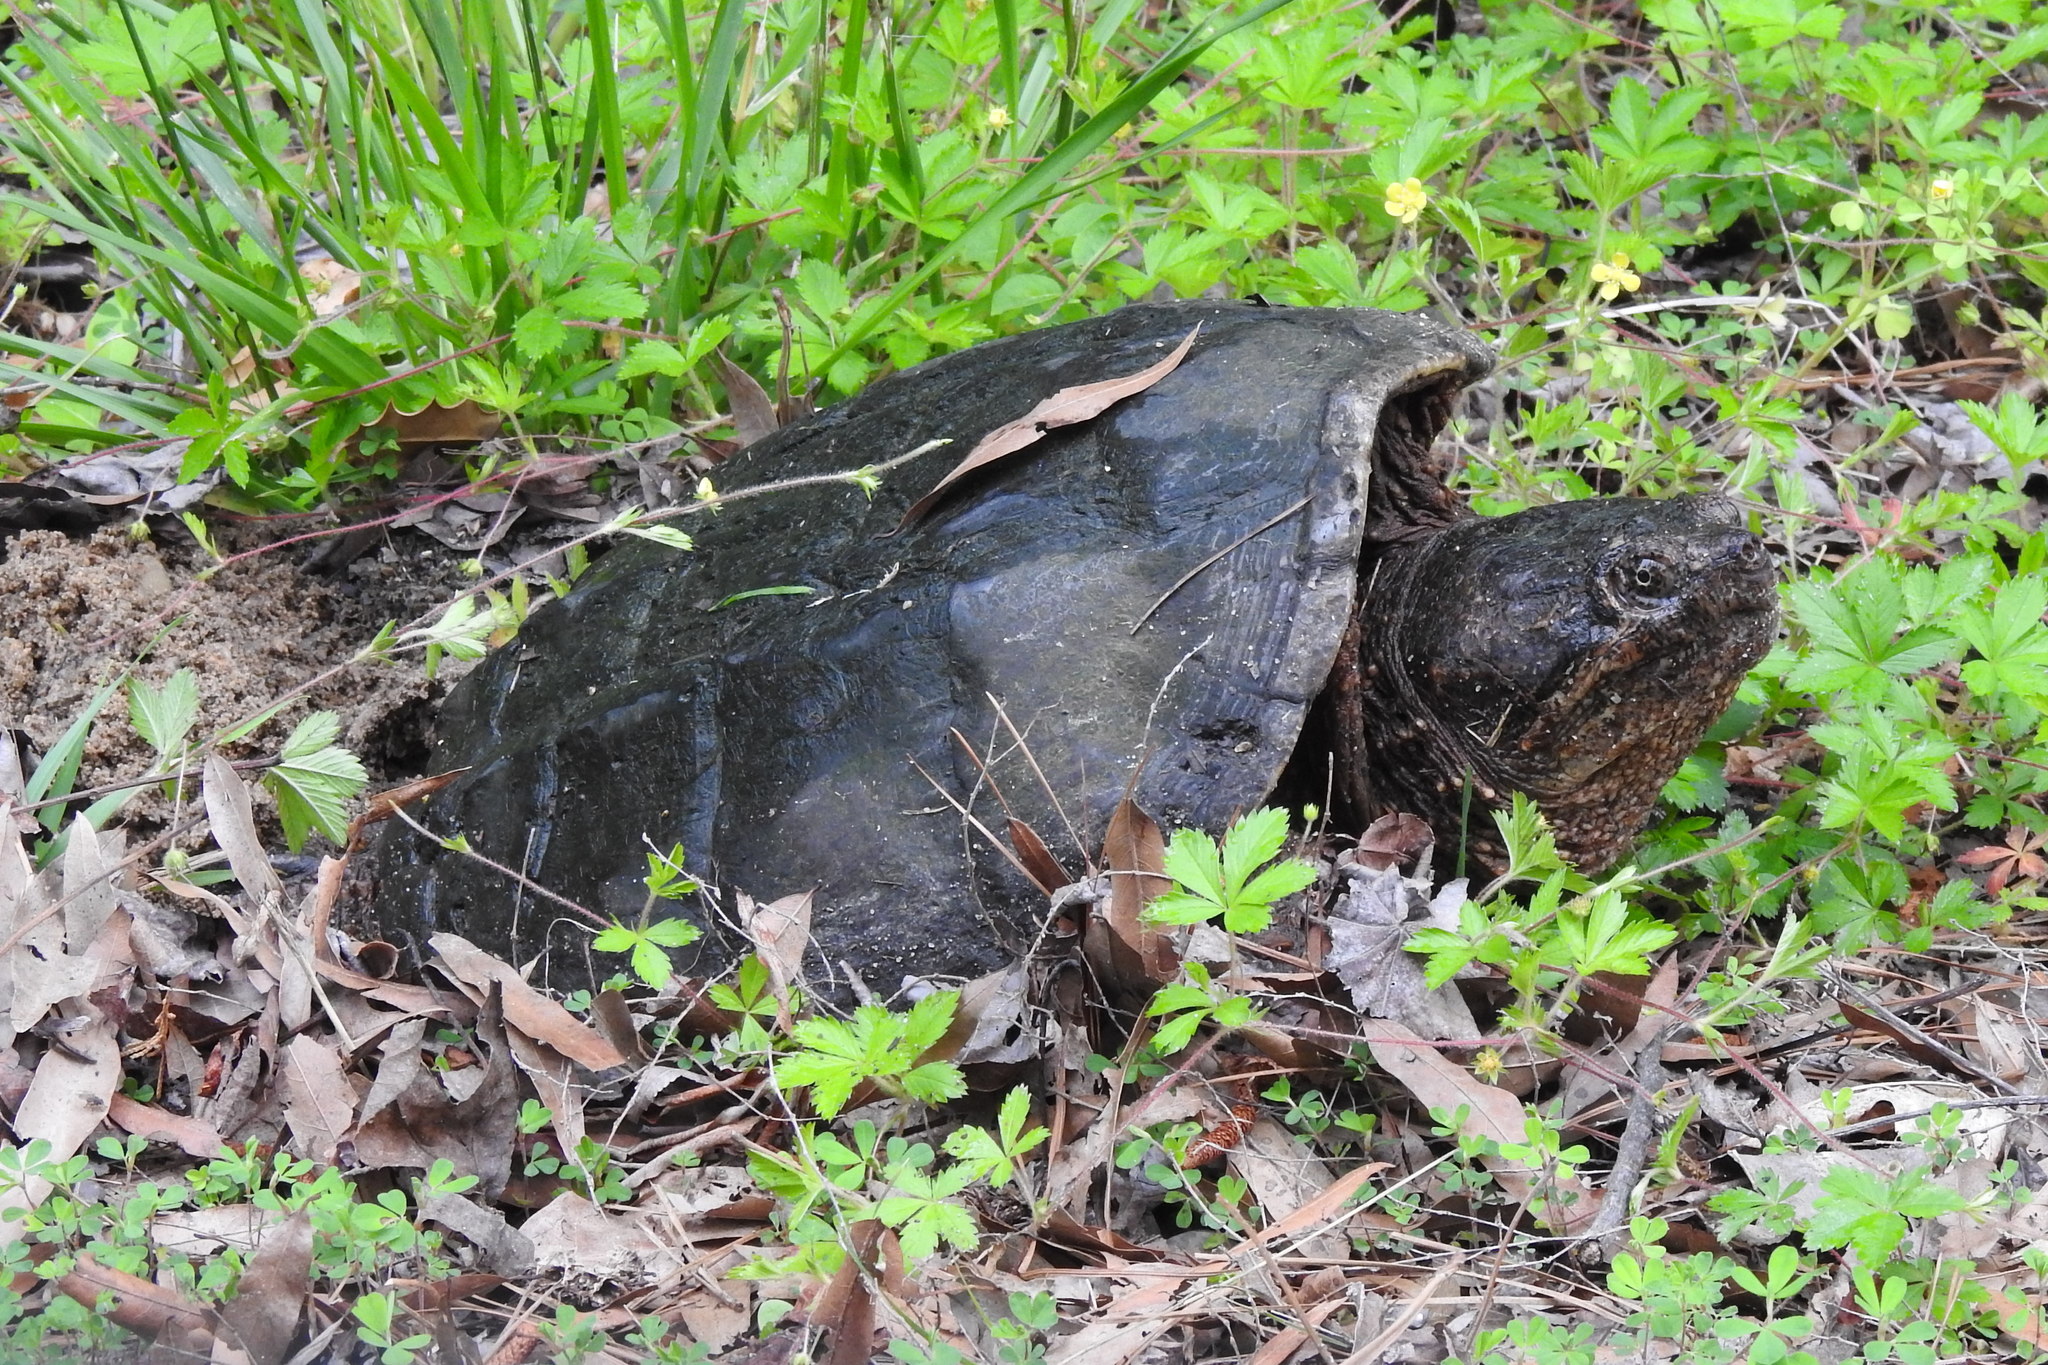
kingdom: Animalia
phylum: Chordata
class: Testudines
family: Chelydridae
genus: Chelydra
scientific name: Chelydra serpentina
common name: Common snapping turtle
